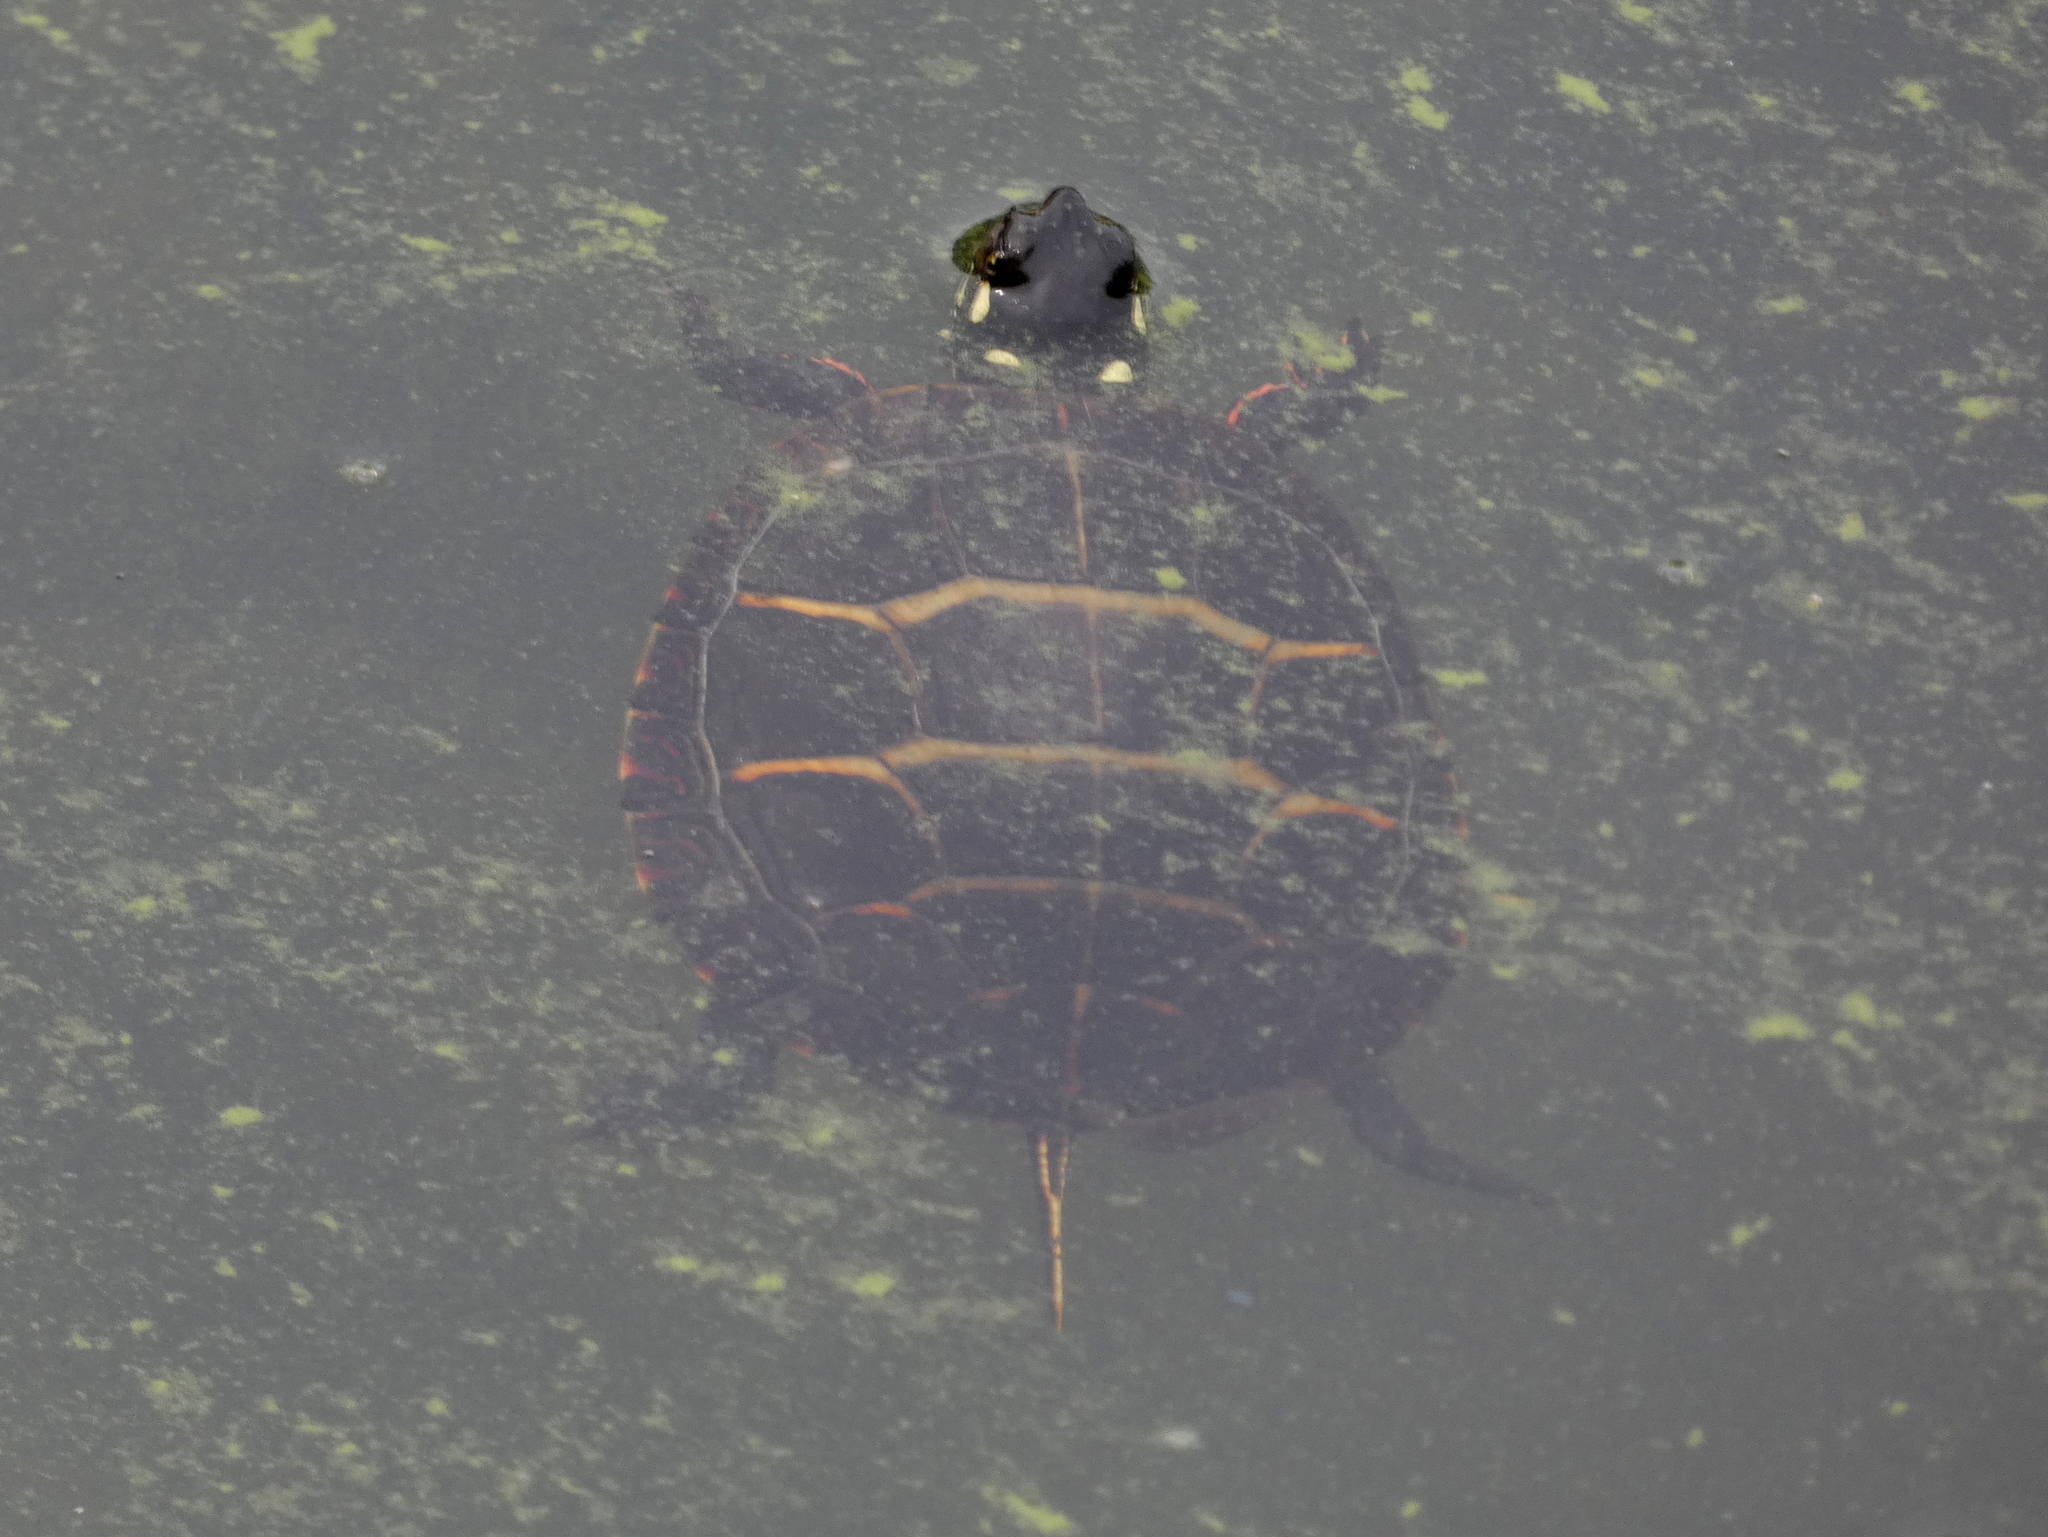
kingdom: Animalia
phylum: Chordata
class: Testudines
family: Emydidae
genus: Chrysemys
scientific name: Chrysemys picta
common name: Painted turtle
